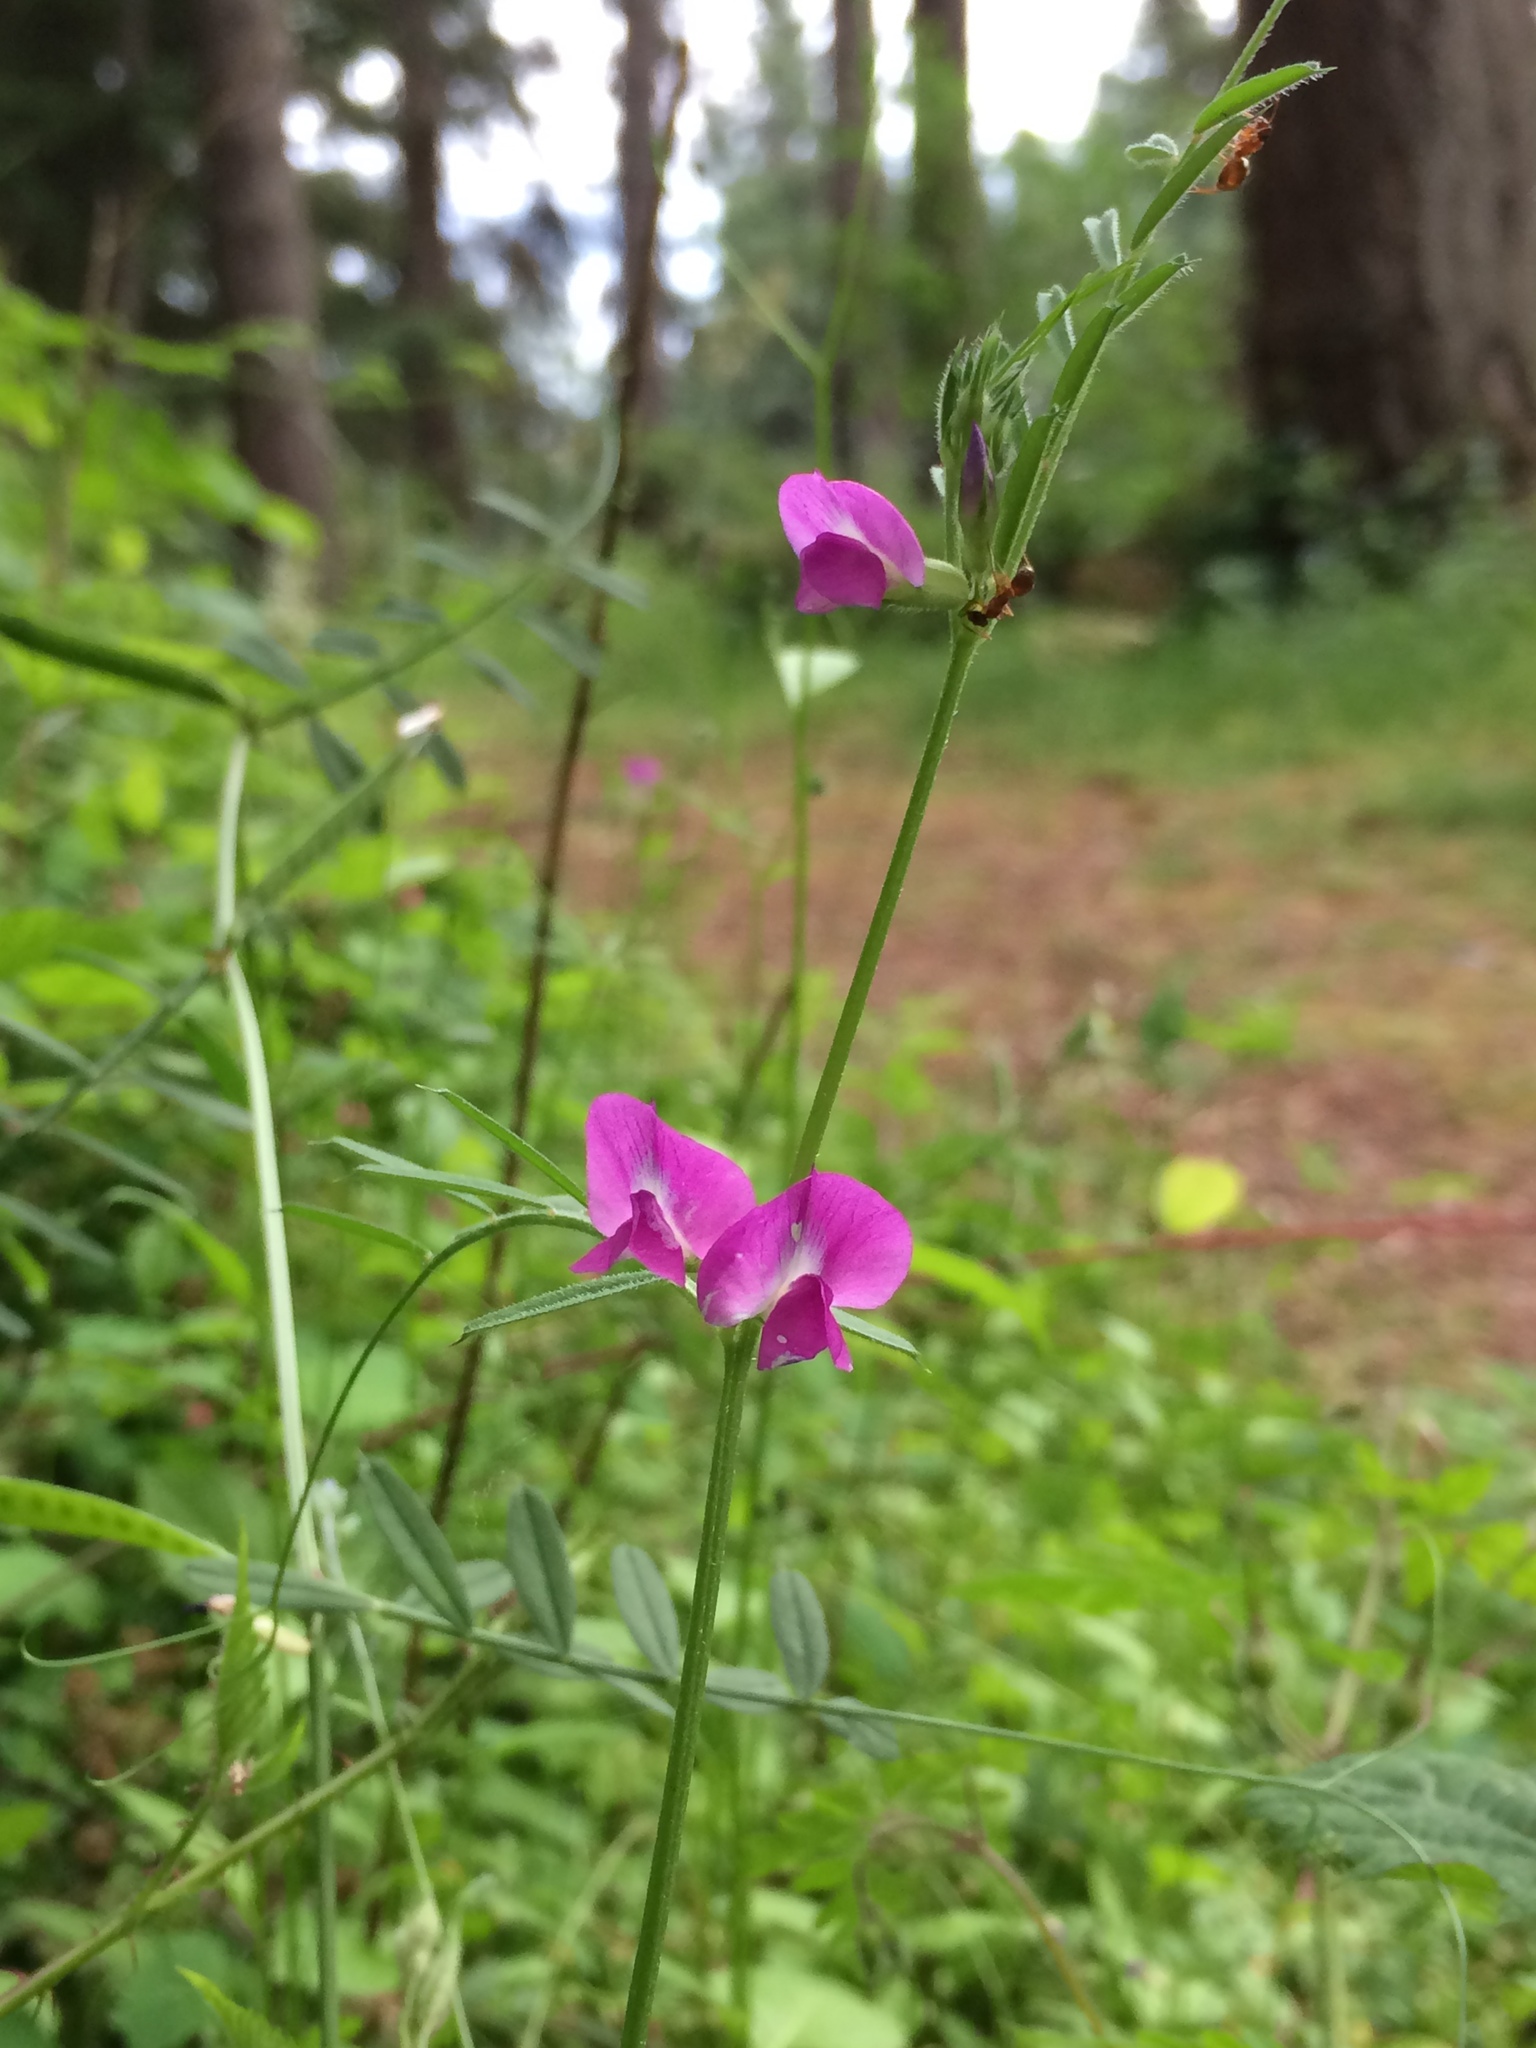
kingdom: Plantae
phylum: Tracheophyta
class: Magnoliopsida
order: Fabales
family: Fabaceae
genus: Vicia
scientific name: Vicia sativa
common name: Garden vetch
